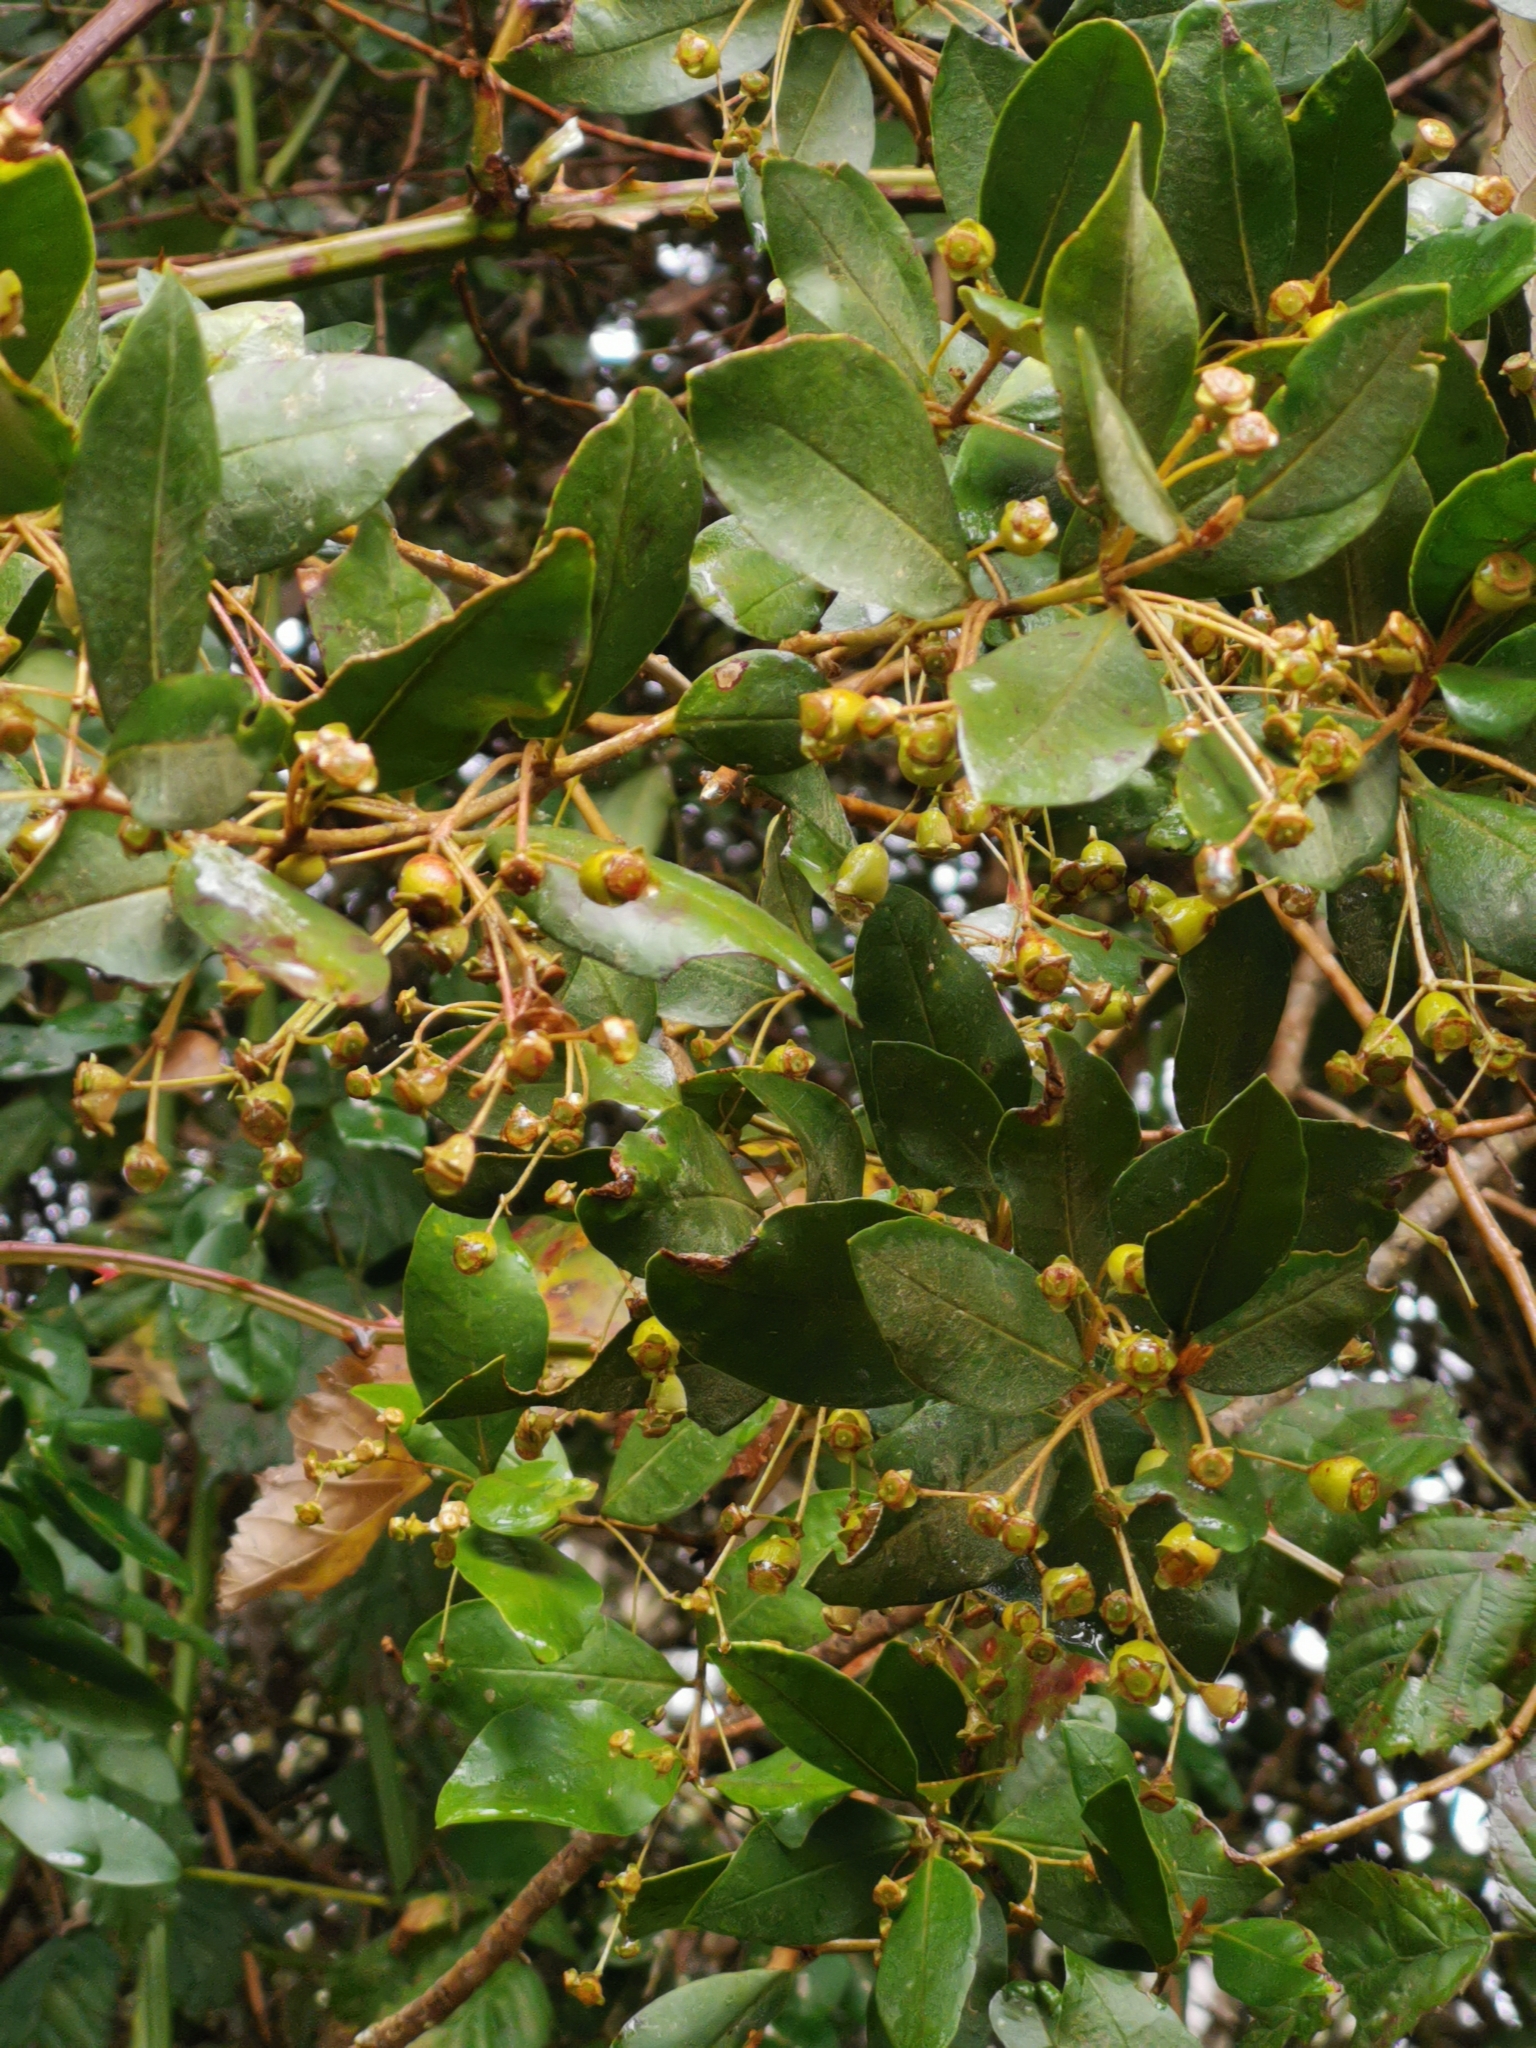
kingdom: Plantae
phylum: Tracheophyta
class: Magnoliopsida
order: Myrtales
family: Myrtaceae
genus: Myrceugenia
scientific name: Myrceugenia exsucca
